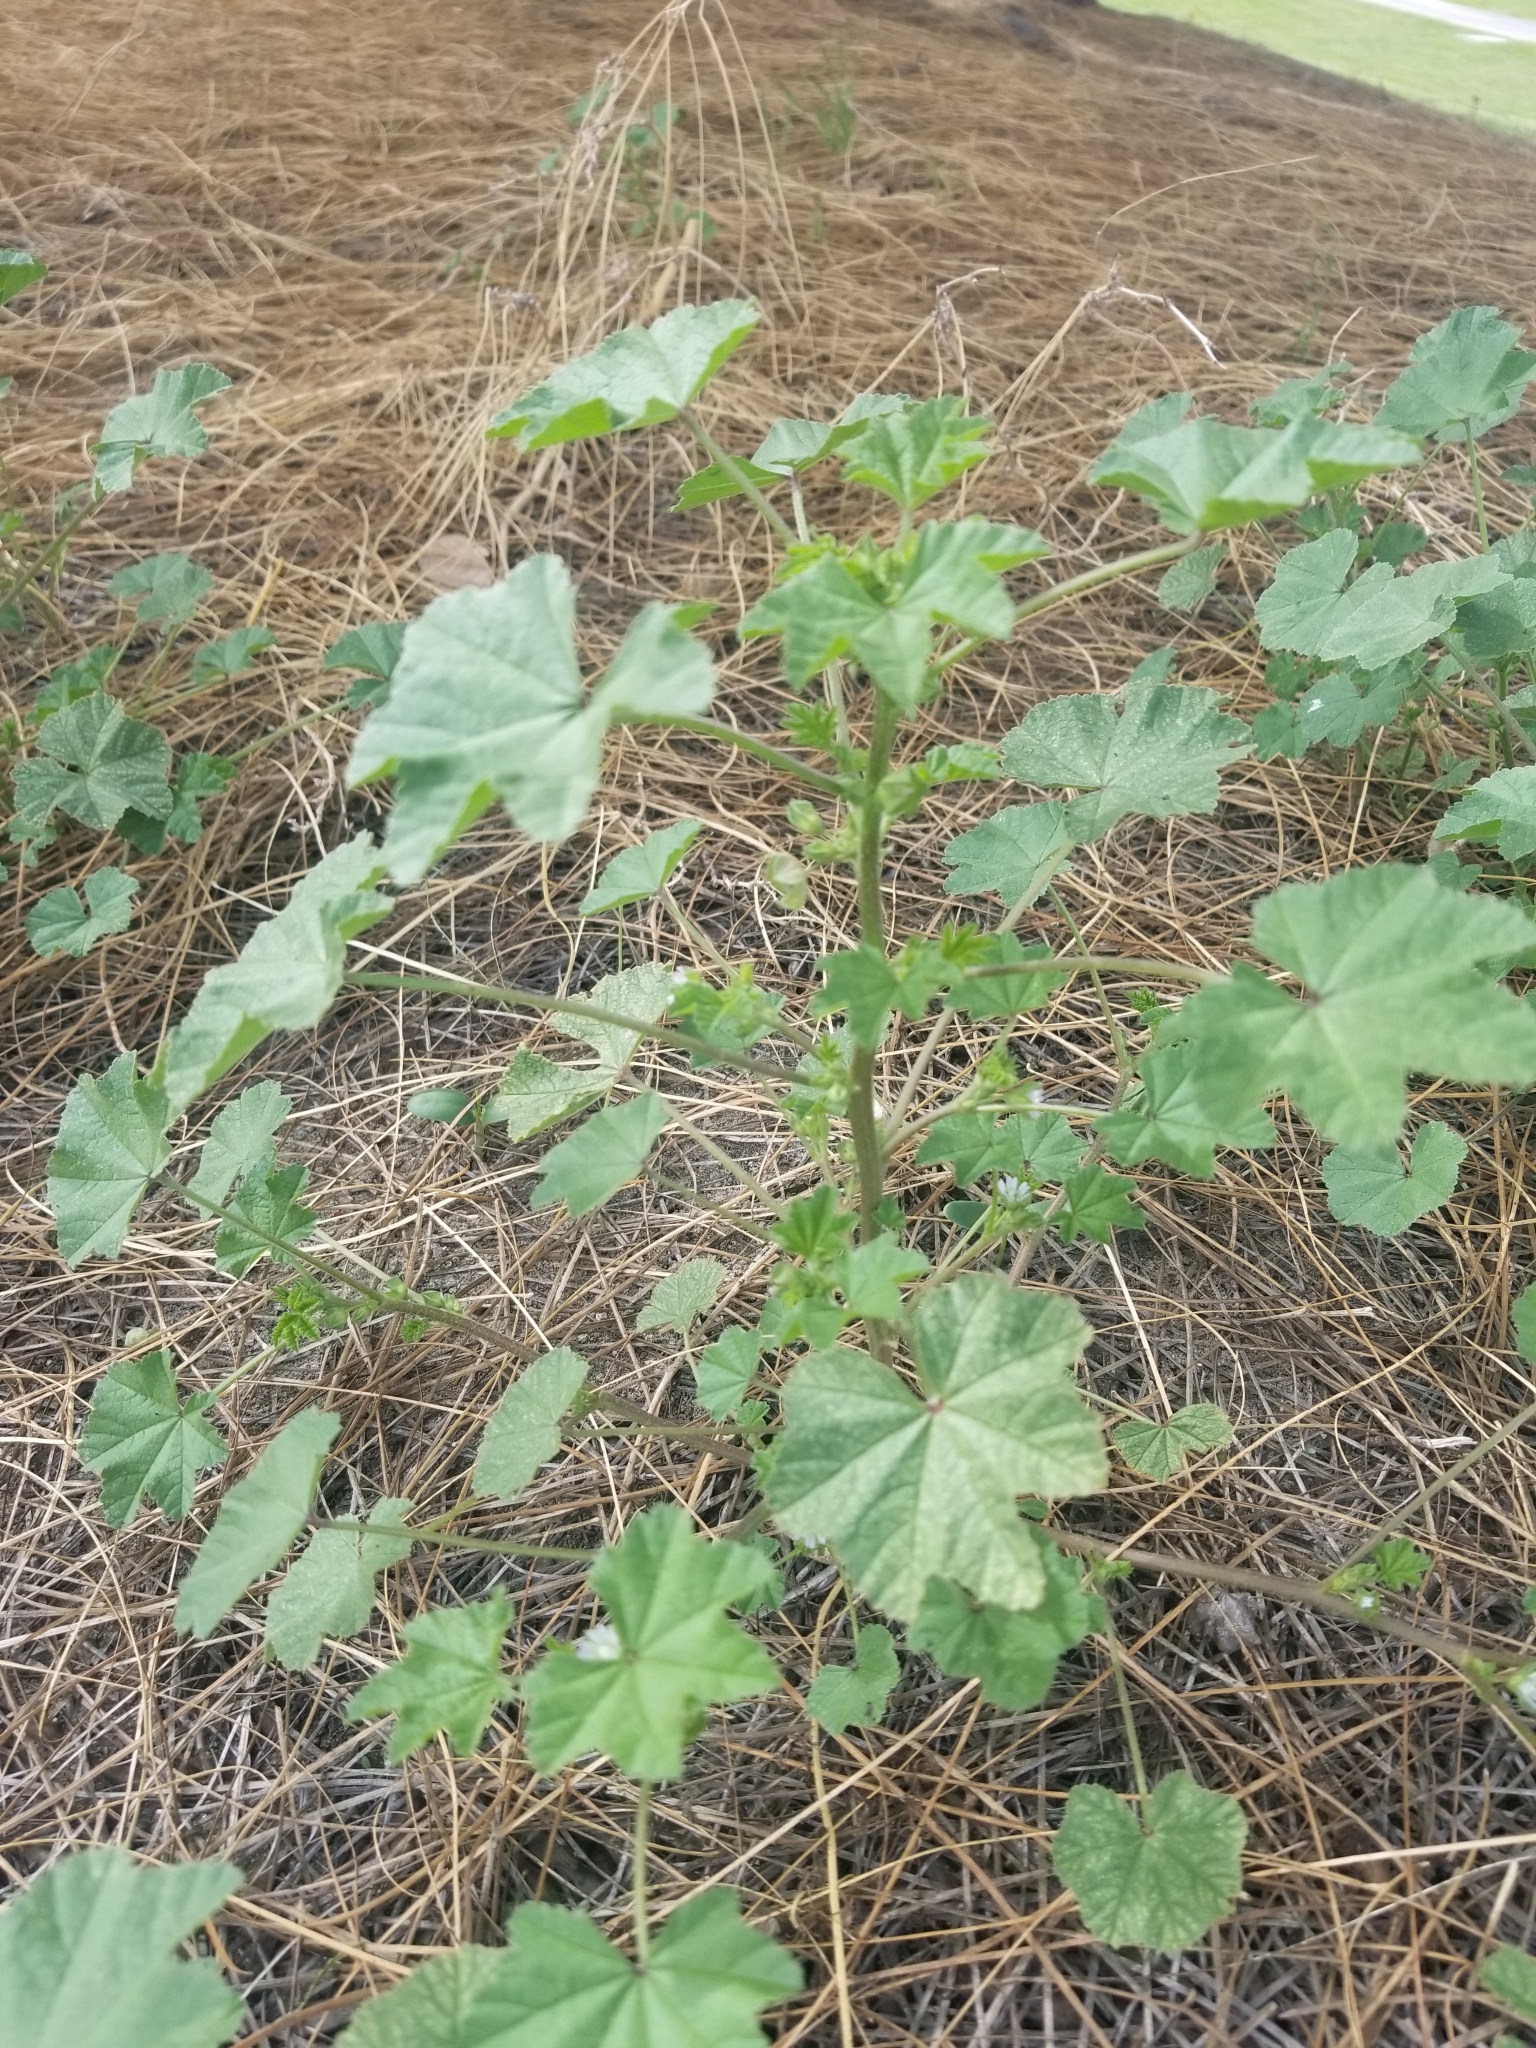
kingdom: Plantae
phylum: Tracheophyta
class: Magnoliopsida
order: Malvales
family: Malvaceae
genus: Malva
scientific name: Malva parviflora
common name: Least mallow
